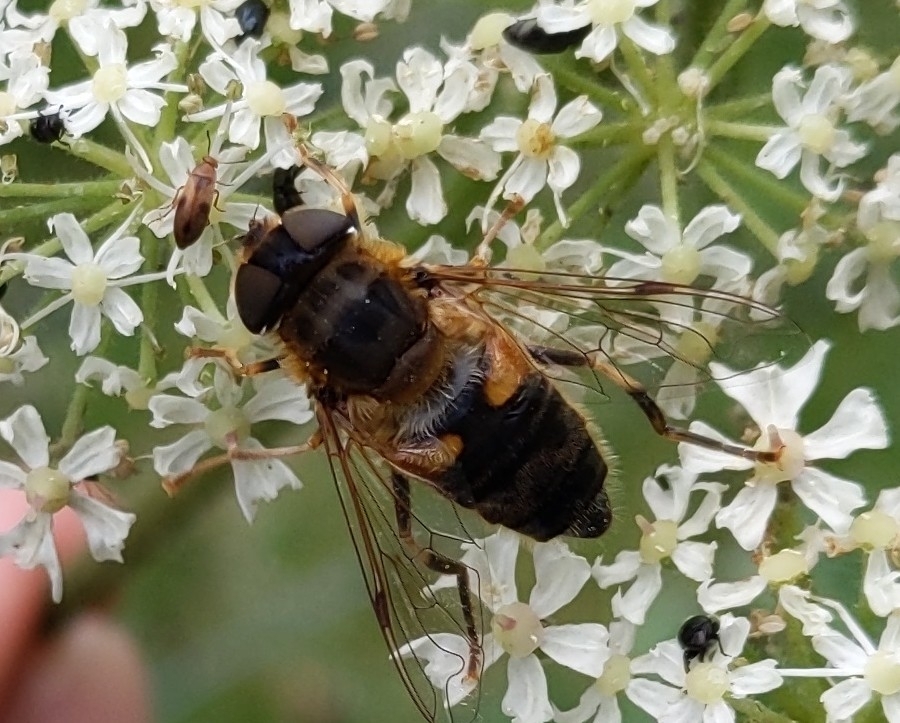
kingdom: Animalia
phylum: Arthropoda
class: Insecta
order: Diptera
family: Syrphidae
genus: Eristalis
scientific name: Eristalis pertinax
